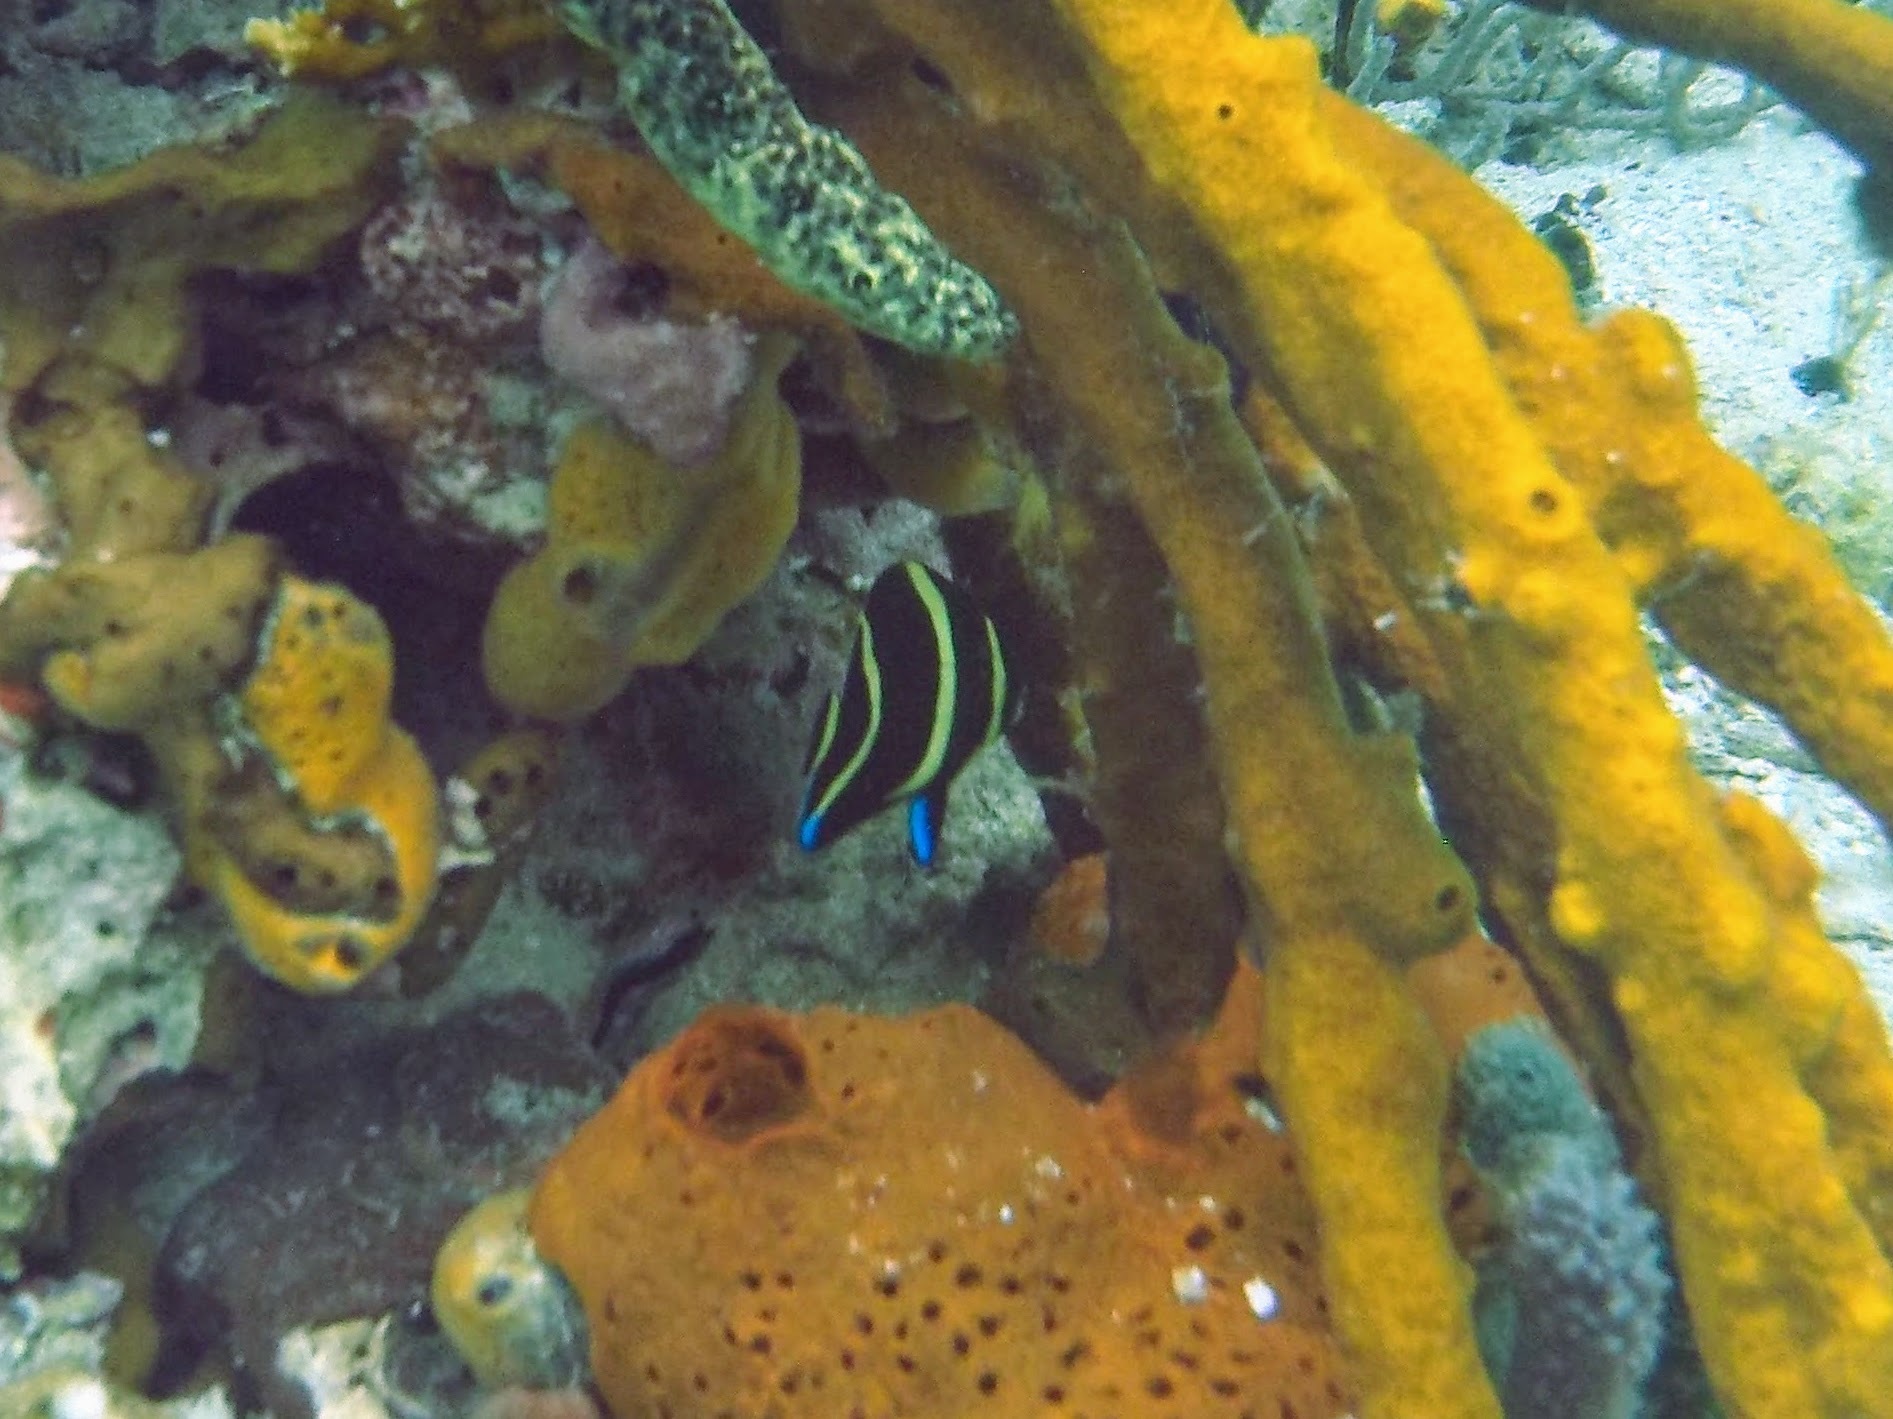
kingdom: Animalia
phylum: Chordata
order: Perciformes
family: Pomacanthidae
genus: Pomacanthus
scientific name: Pomacanthus arcuatus
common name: Gray angelfish
